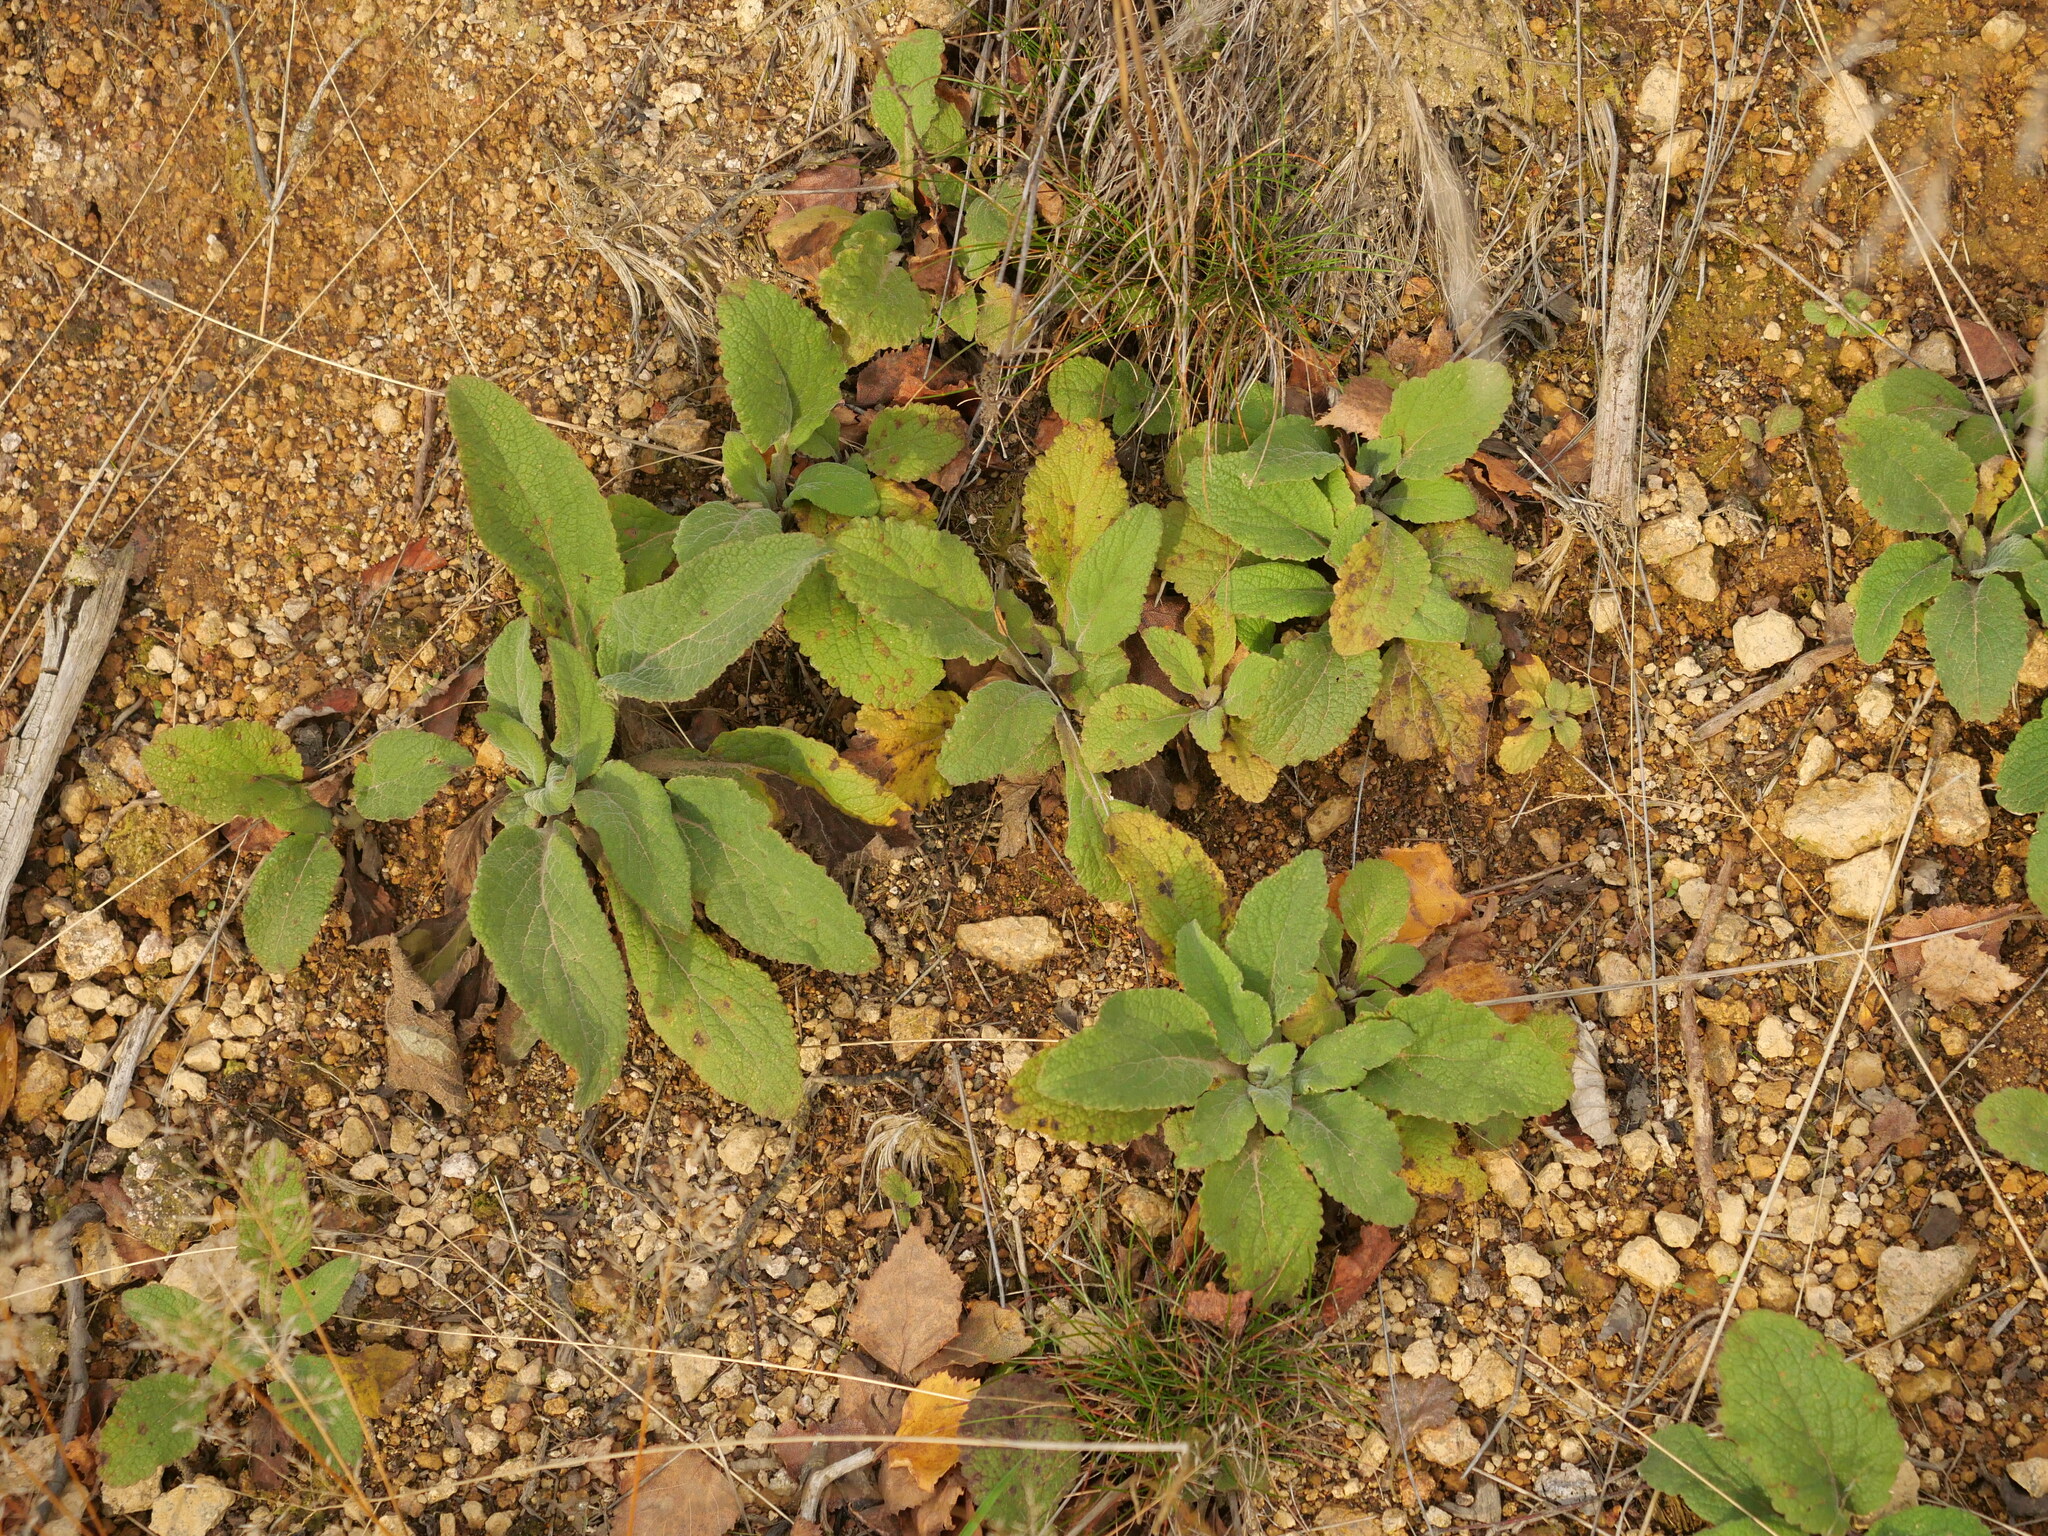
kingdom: Plantae
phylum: Tracheophyta
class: Magnoliopsida
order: Lamiales
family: Plantaginaceae
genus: Digitalis
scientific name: Digitalis purpurea
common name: Foxglove
